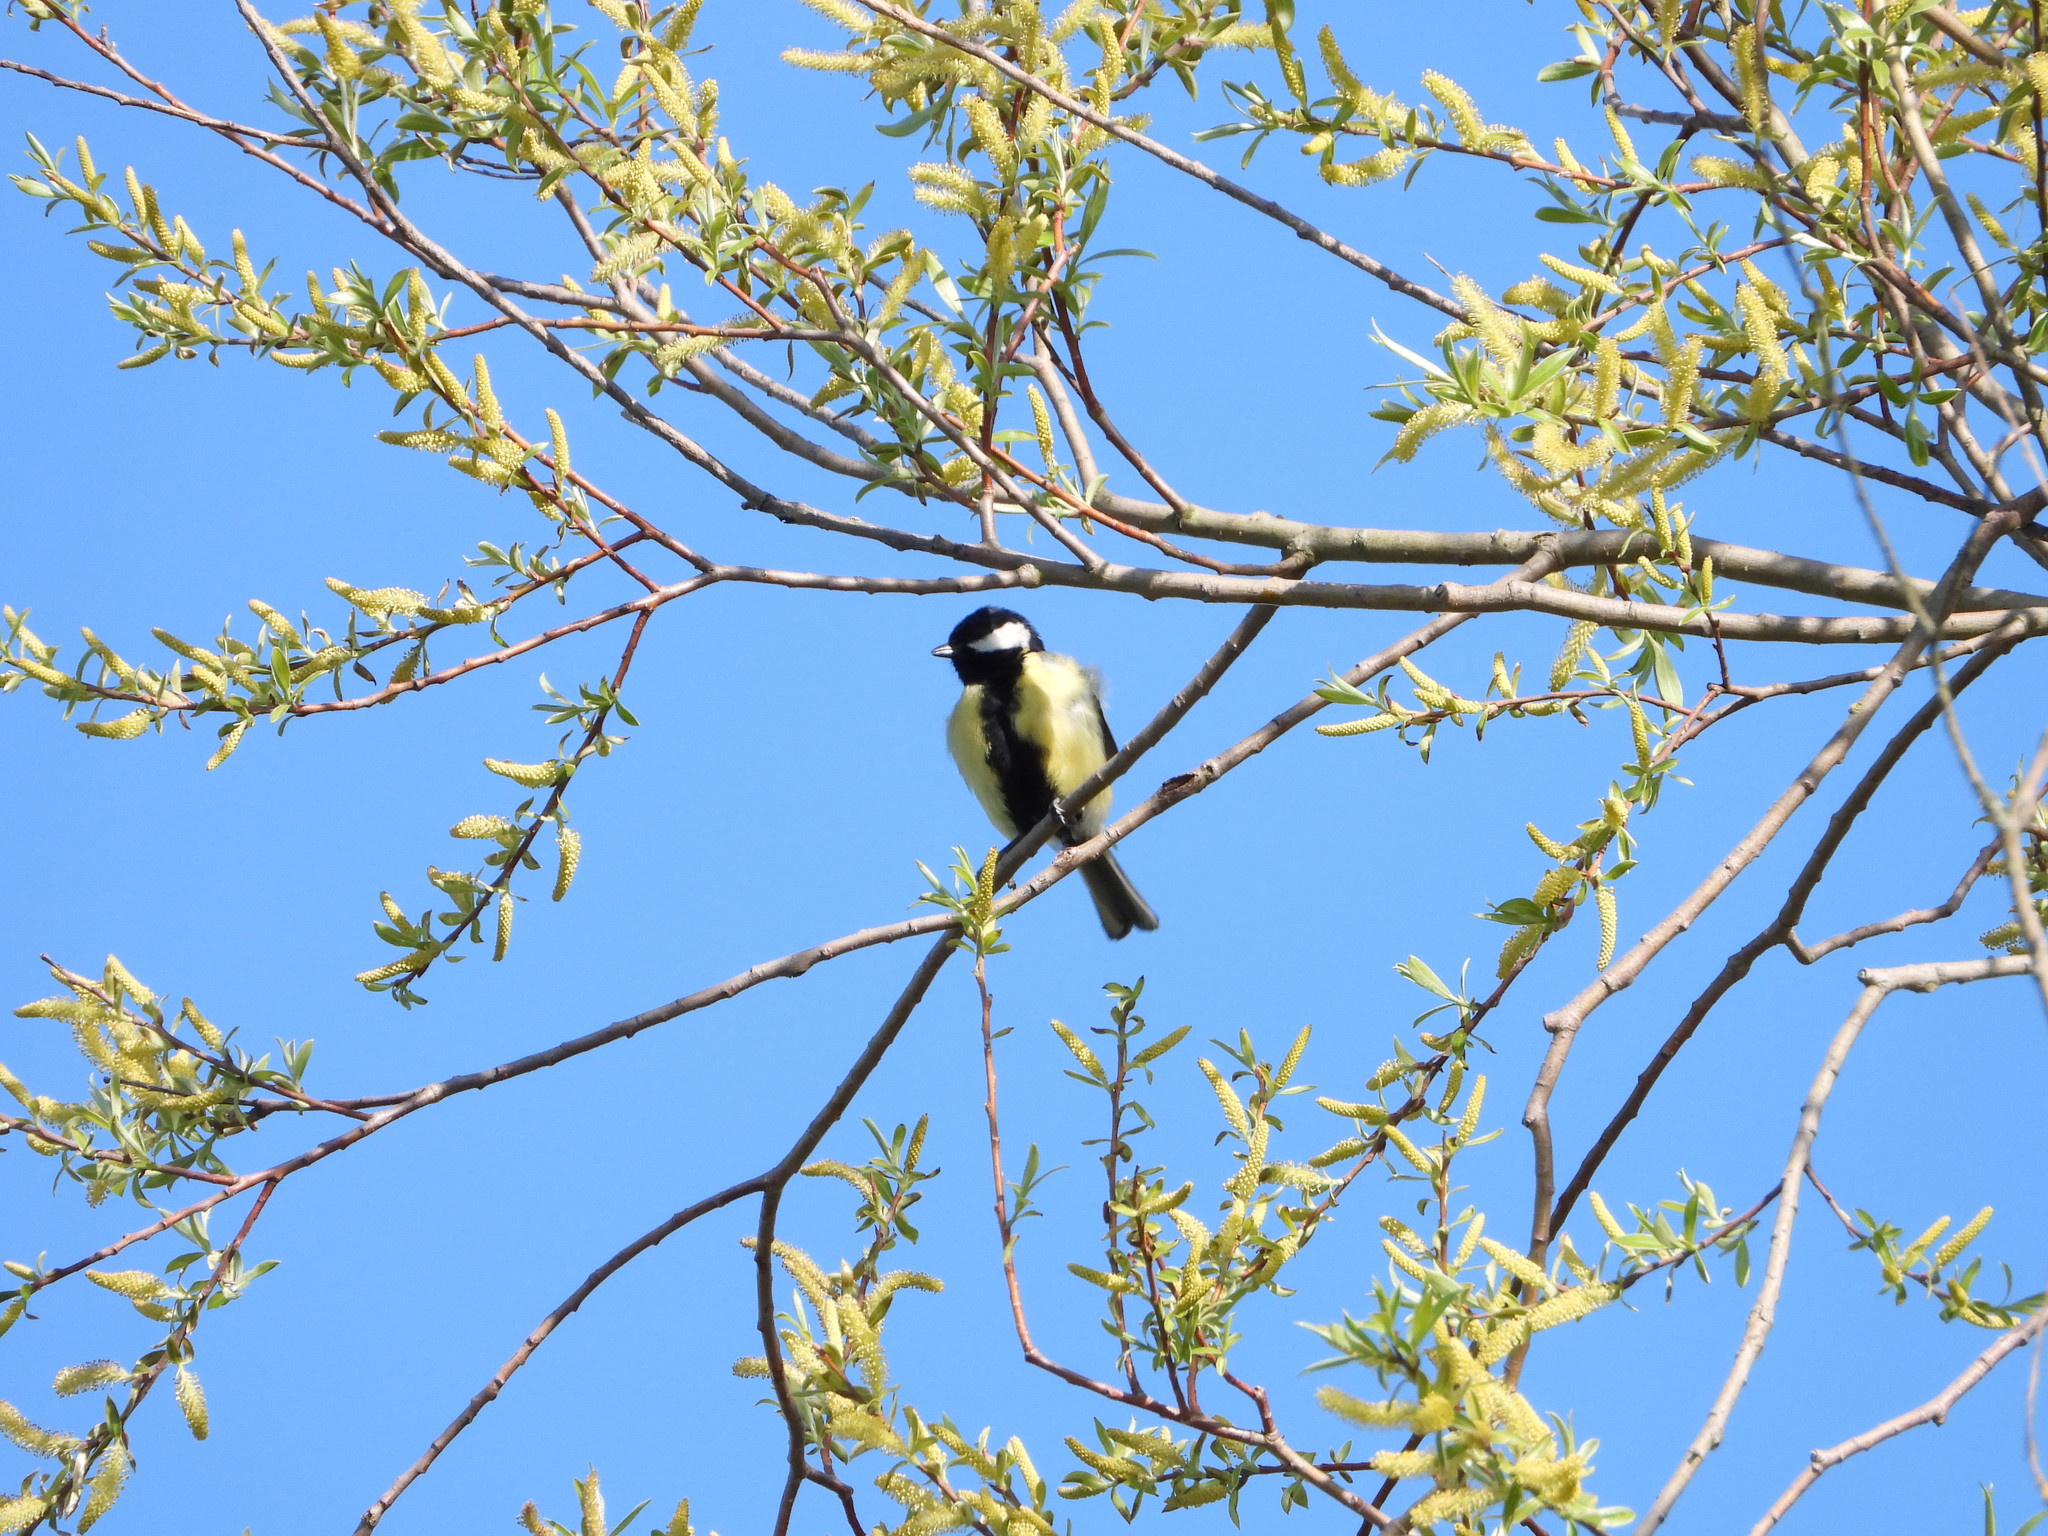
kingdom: Animalia
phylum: Chordata
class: Aves
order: Passeriformes
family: Paridae
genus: Parus
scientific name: Parus major
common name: Great tit
